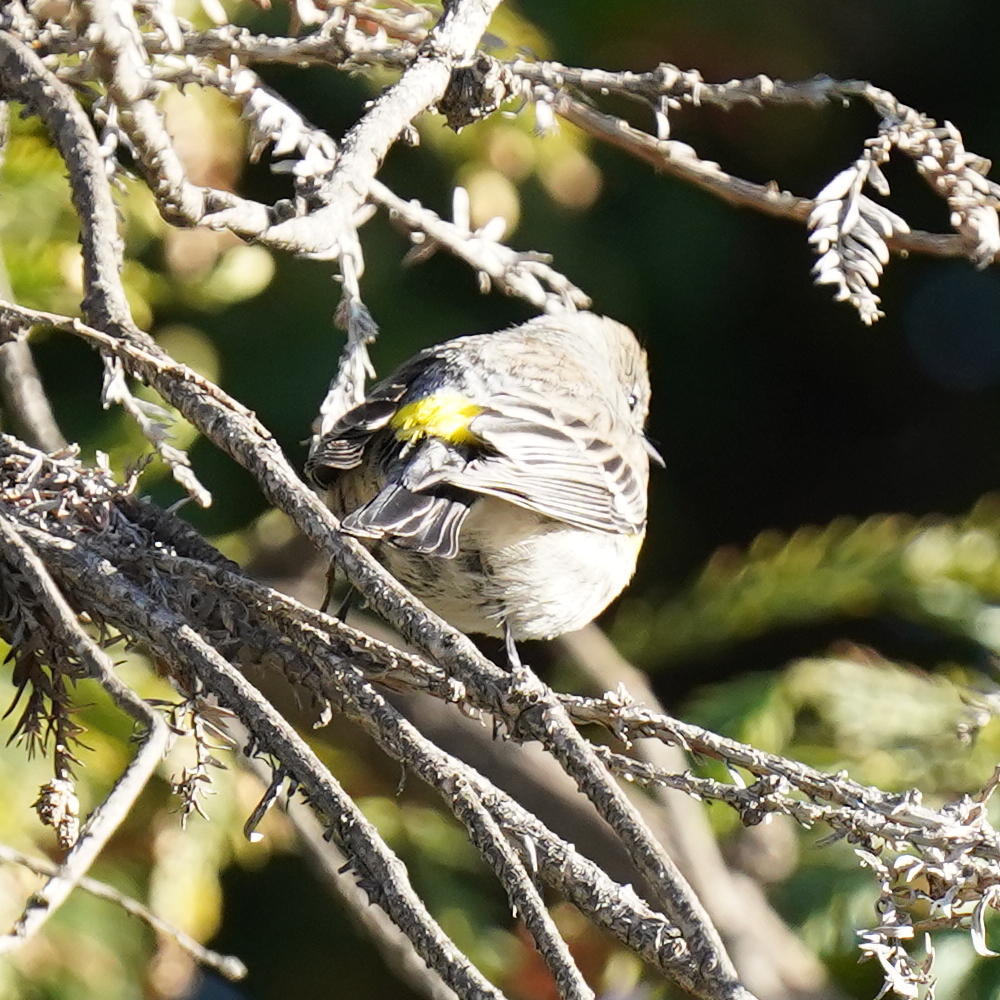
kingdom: Animalia
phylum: Chordata
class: Aves
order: Passeriformes
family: Parulidae
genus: Setophaga
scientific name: Setophaga coronata
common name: Myrtle warbler
